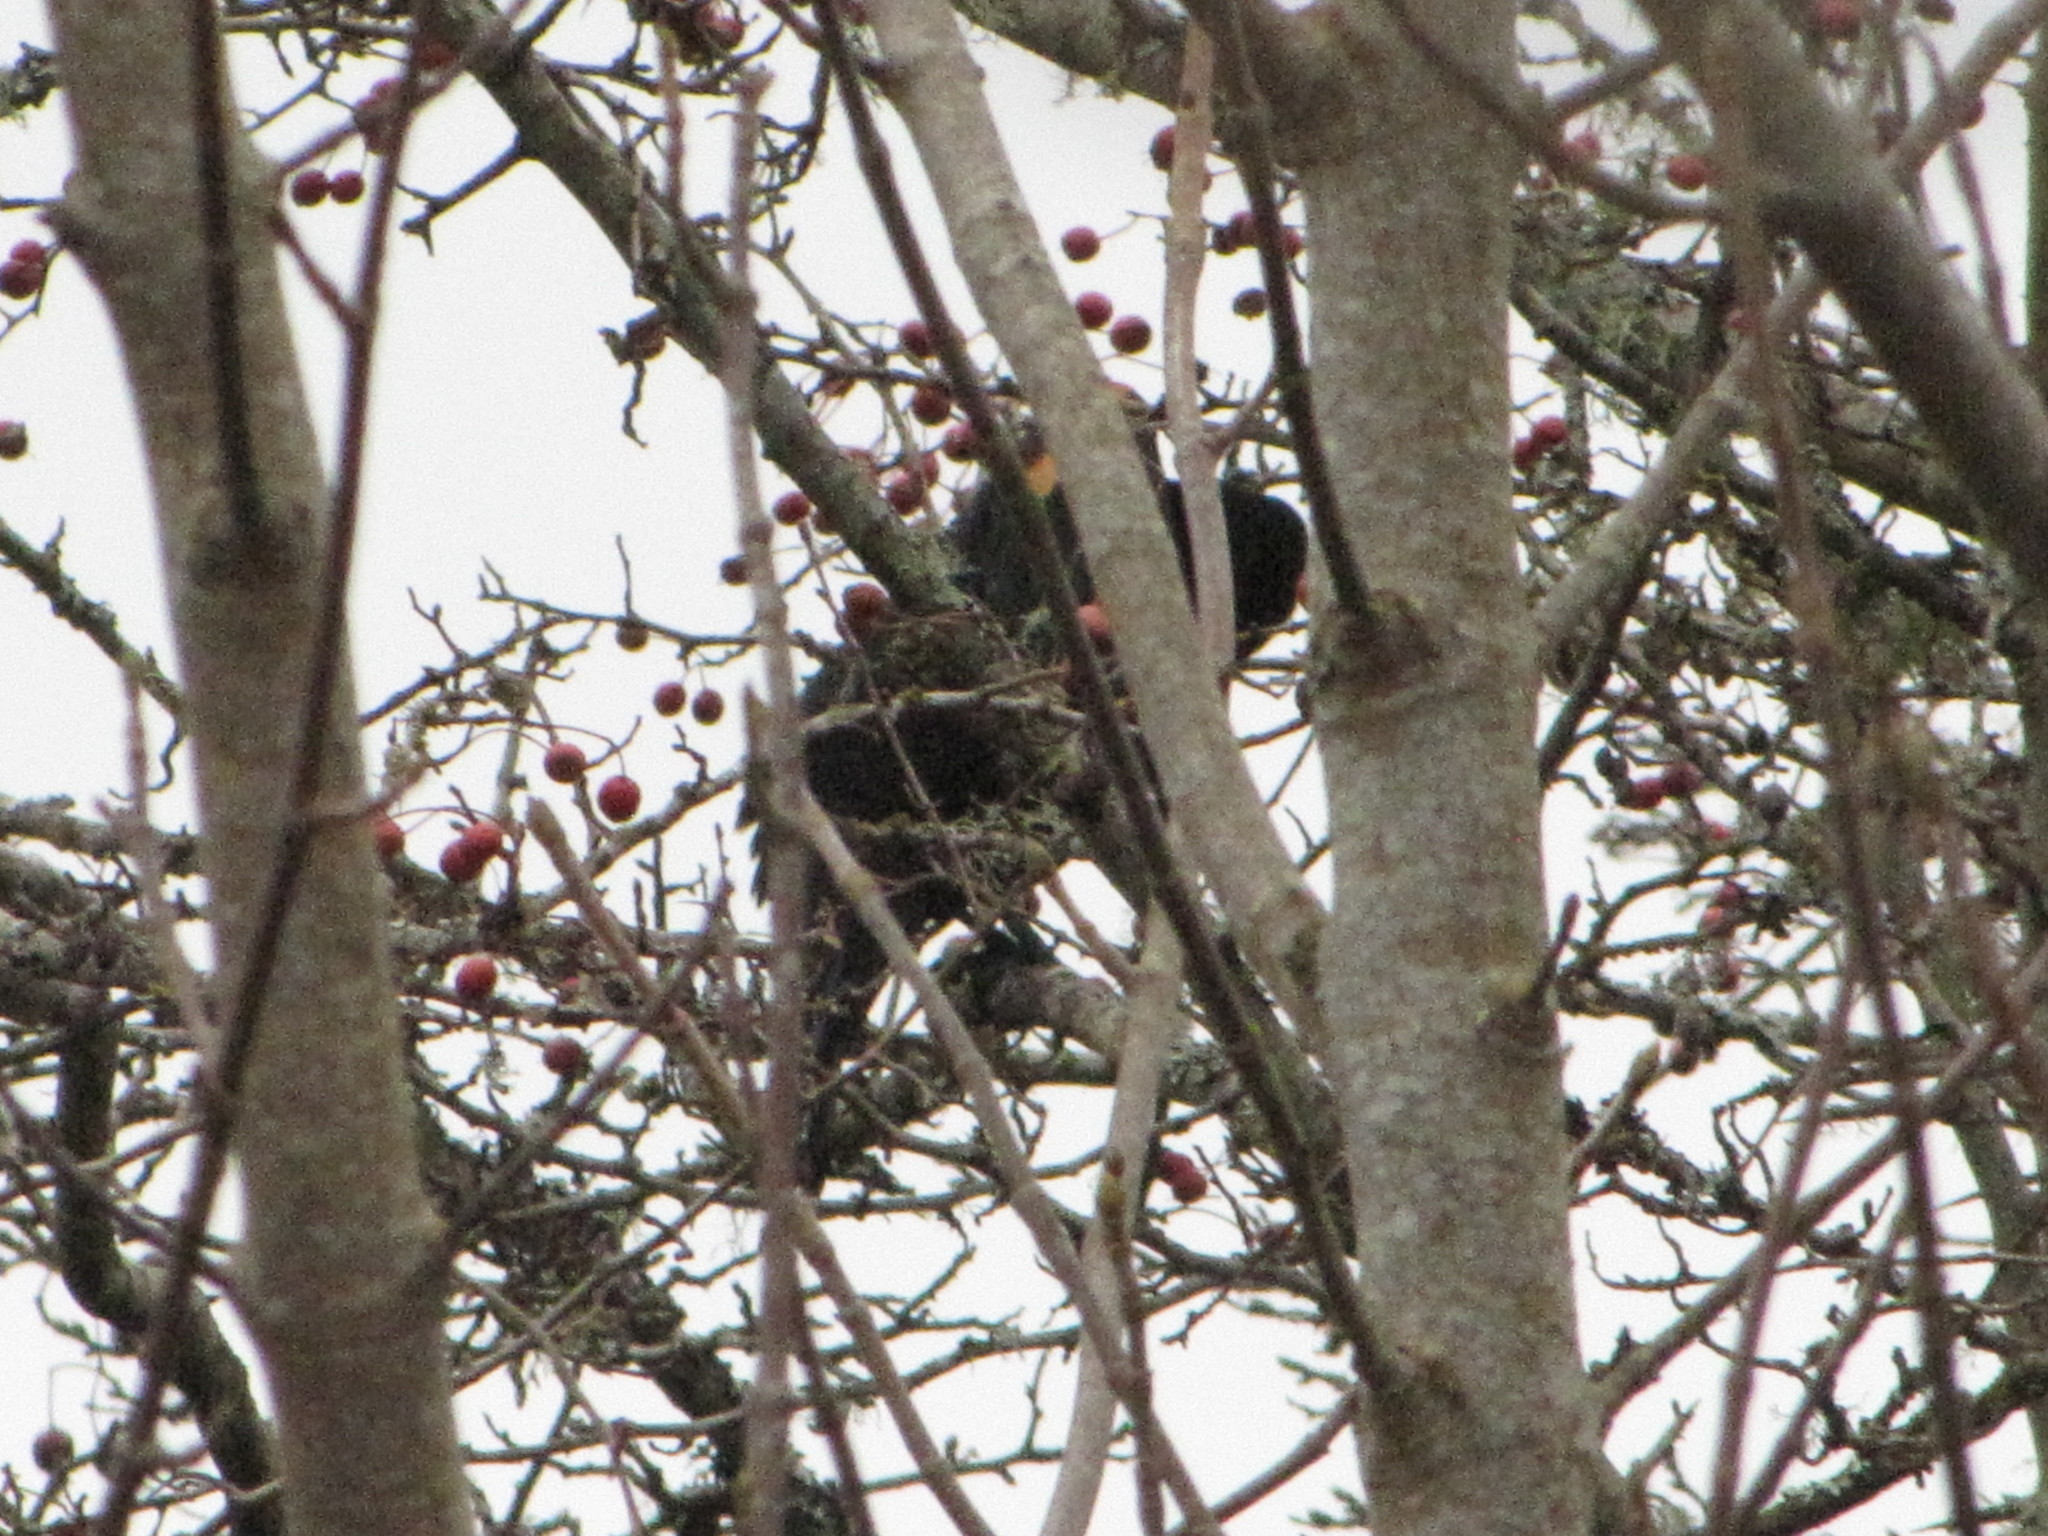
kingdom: Animalia
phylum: Chordata
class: Aves
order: Passeriformes
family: Icteridae
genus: Agelaius
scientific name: Agelaius phoeniceus
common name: Red-winged blackbird
